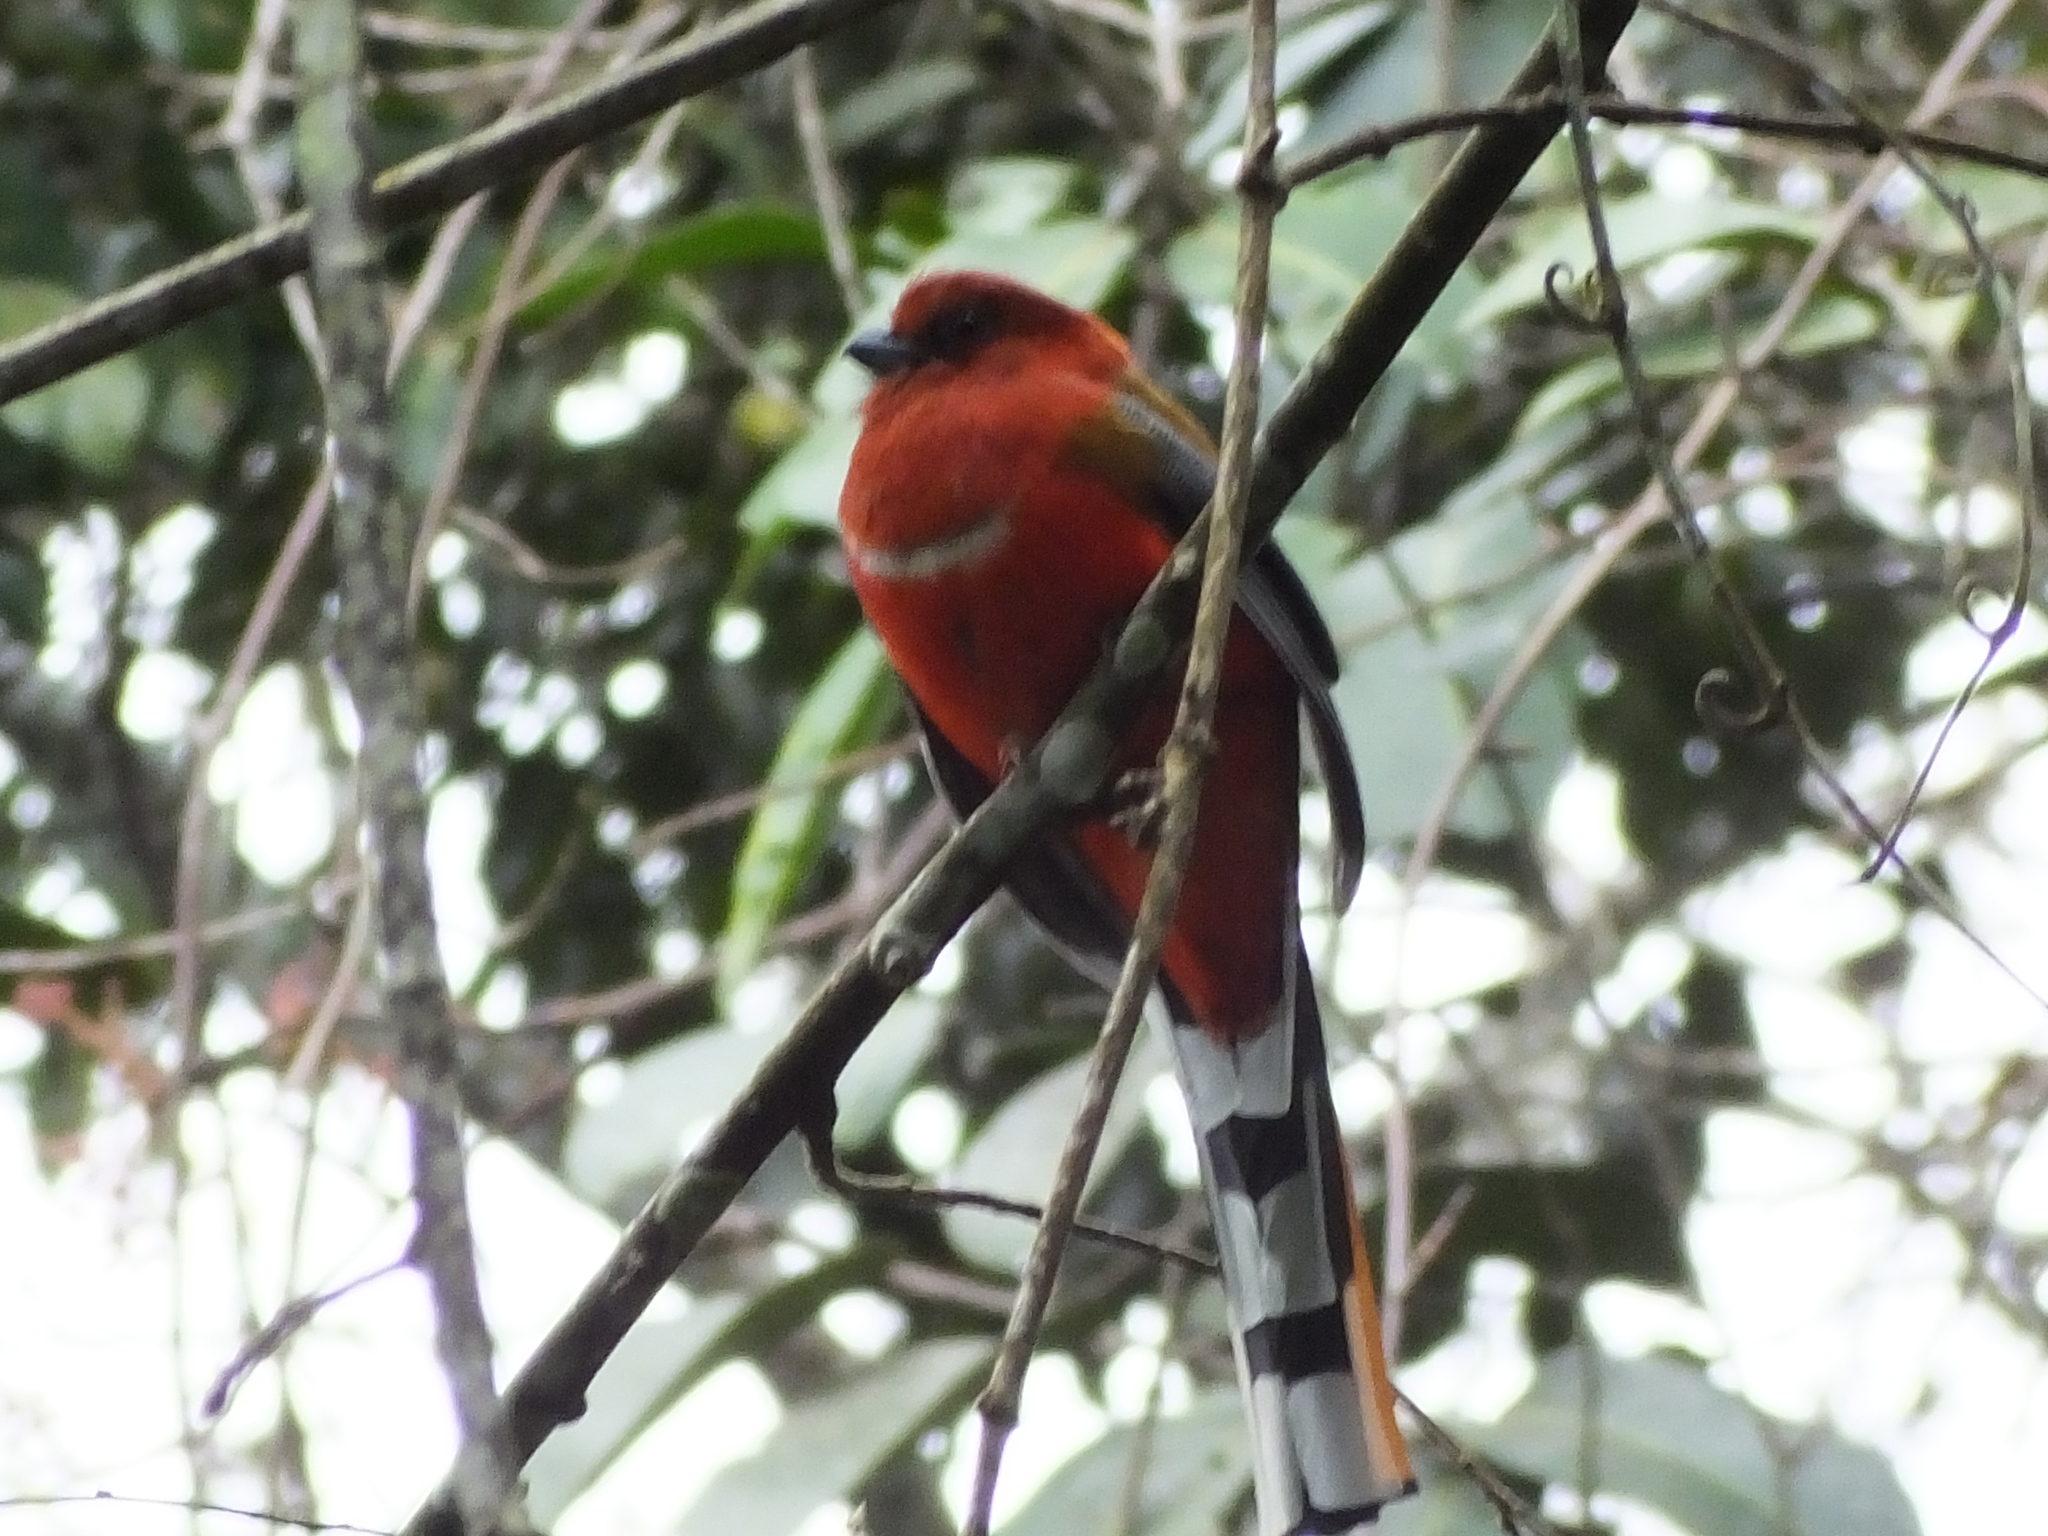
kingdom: Animalia
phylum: Chordata
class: Aves
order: Trogoniformes
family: Trogonidae
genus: Harpactes
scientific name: Harpactes erythrocephalus
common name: Red-headed trogon
